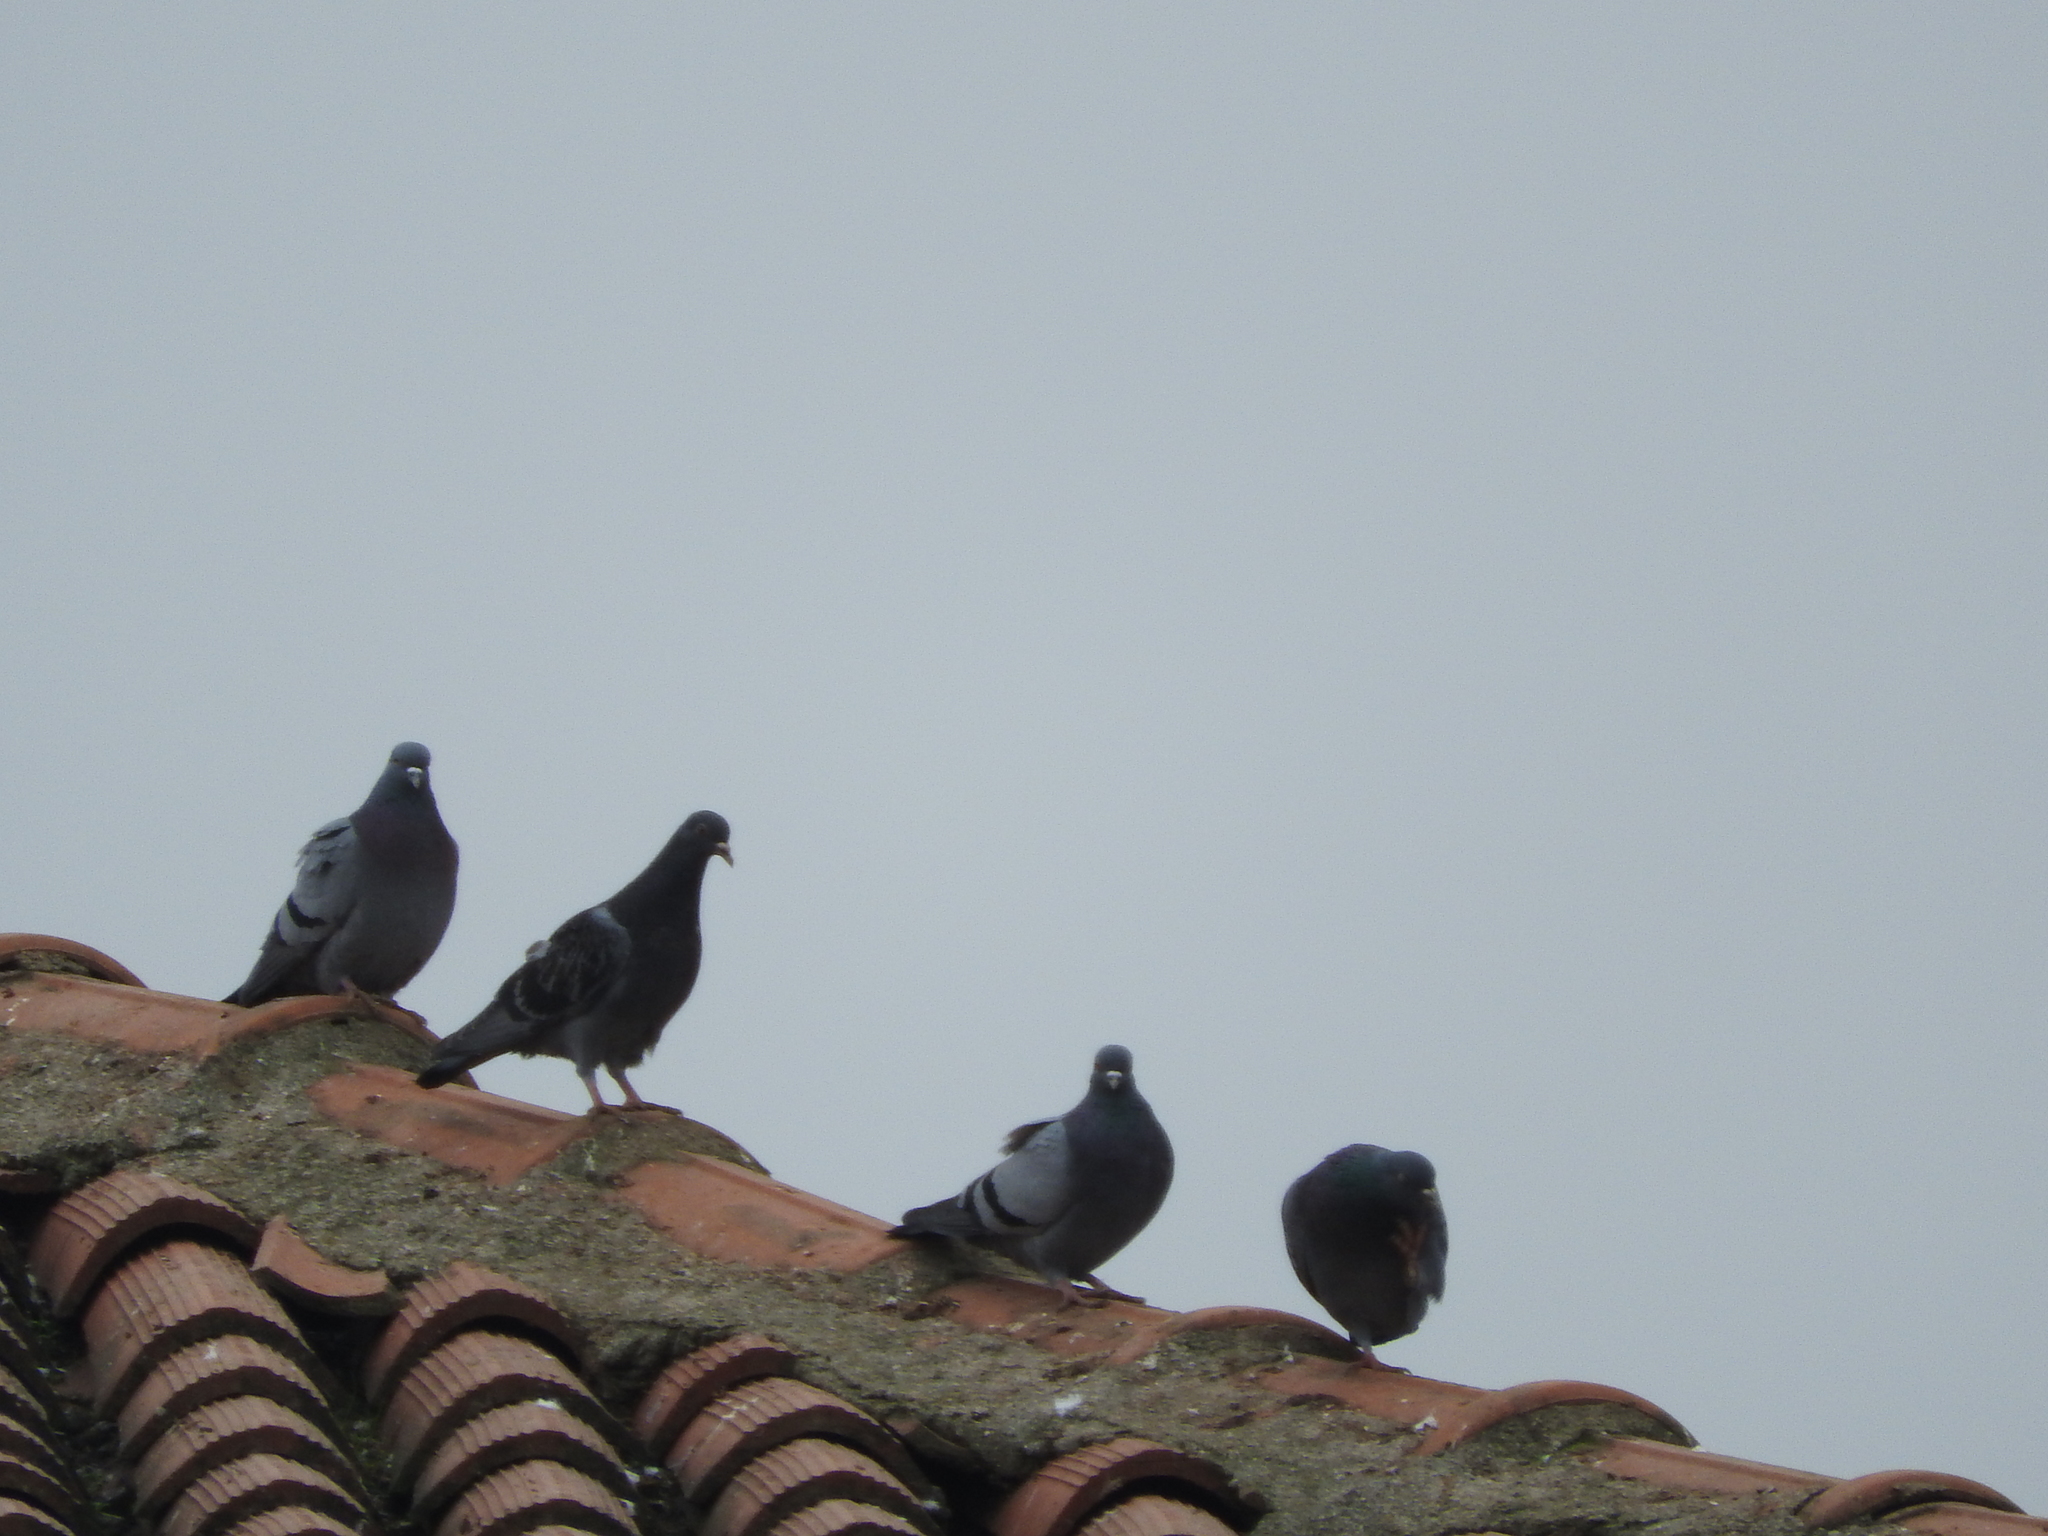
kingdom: Animalia
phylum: Chordata
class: Aves
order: Columbiformes
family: Columbidae
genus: Columba
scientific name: Columba livia
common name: Rock pigeon
